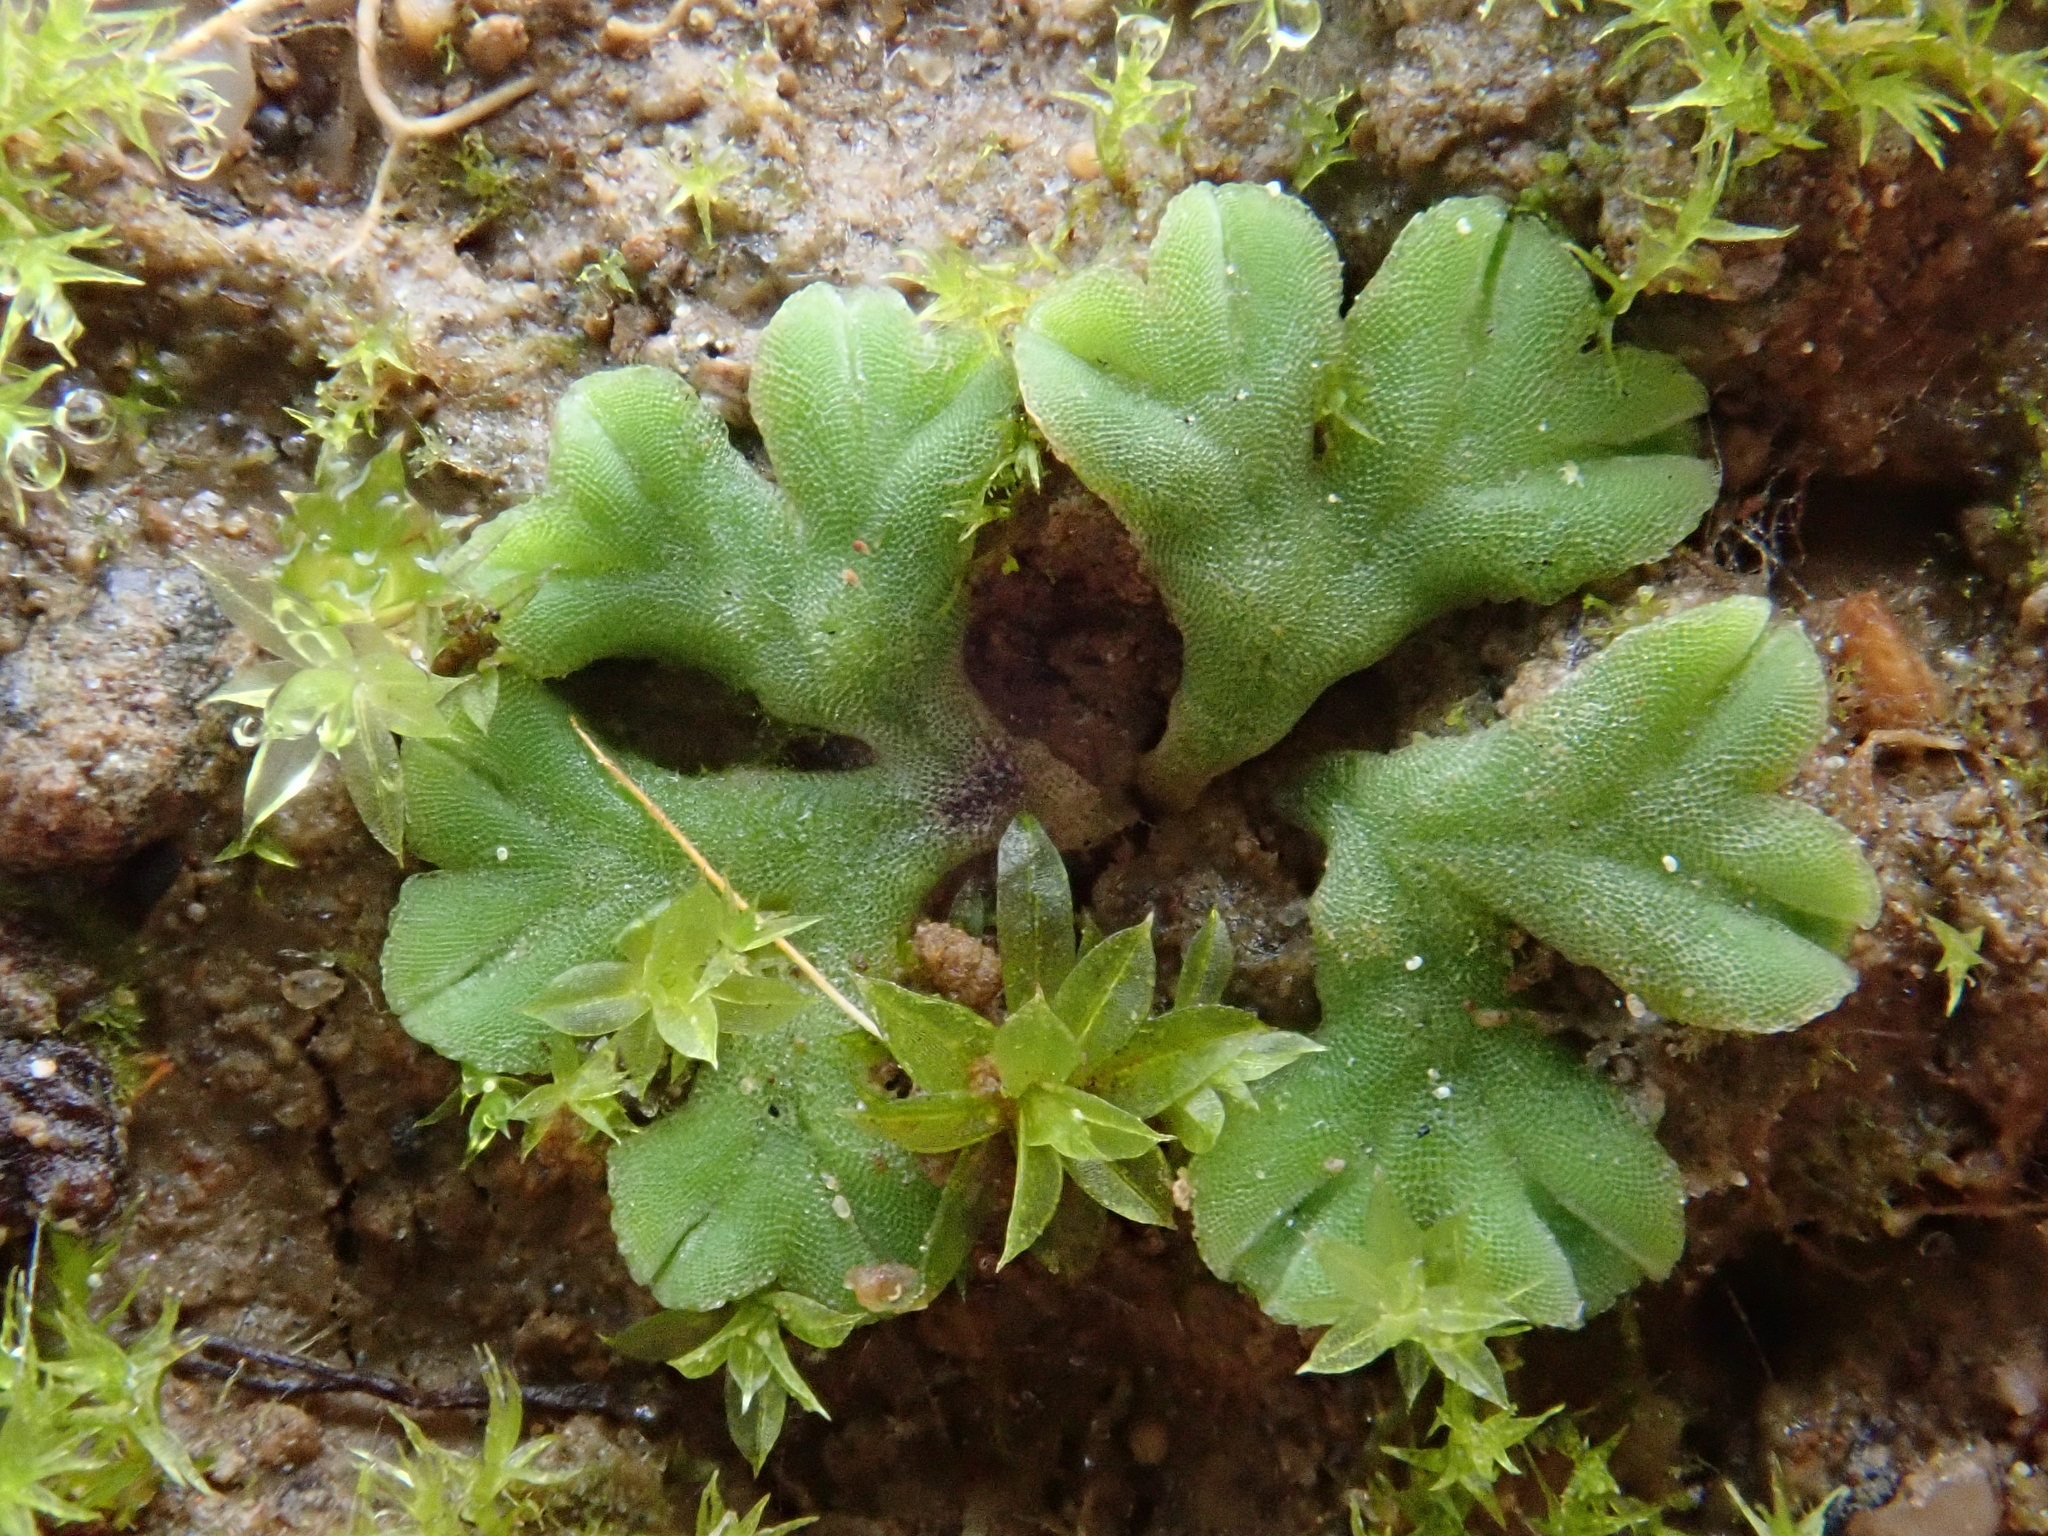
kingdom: Plantae
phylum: Marchantiophyta
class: Marchantiopsida
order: Marchantiales
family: Ricciaceae
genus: Riccia
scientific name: Riccia sorocarpa
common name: Common crystalwort
